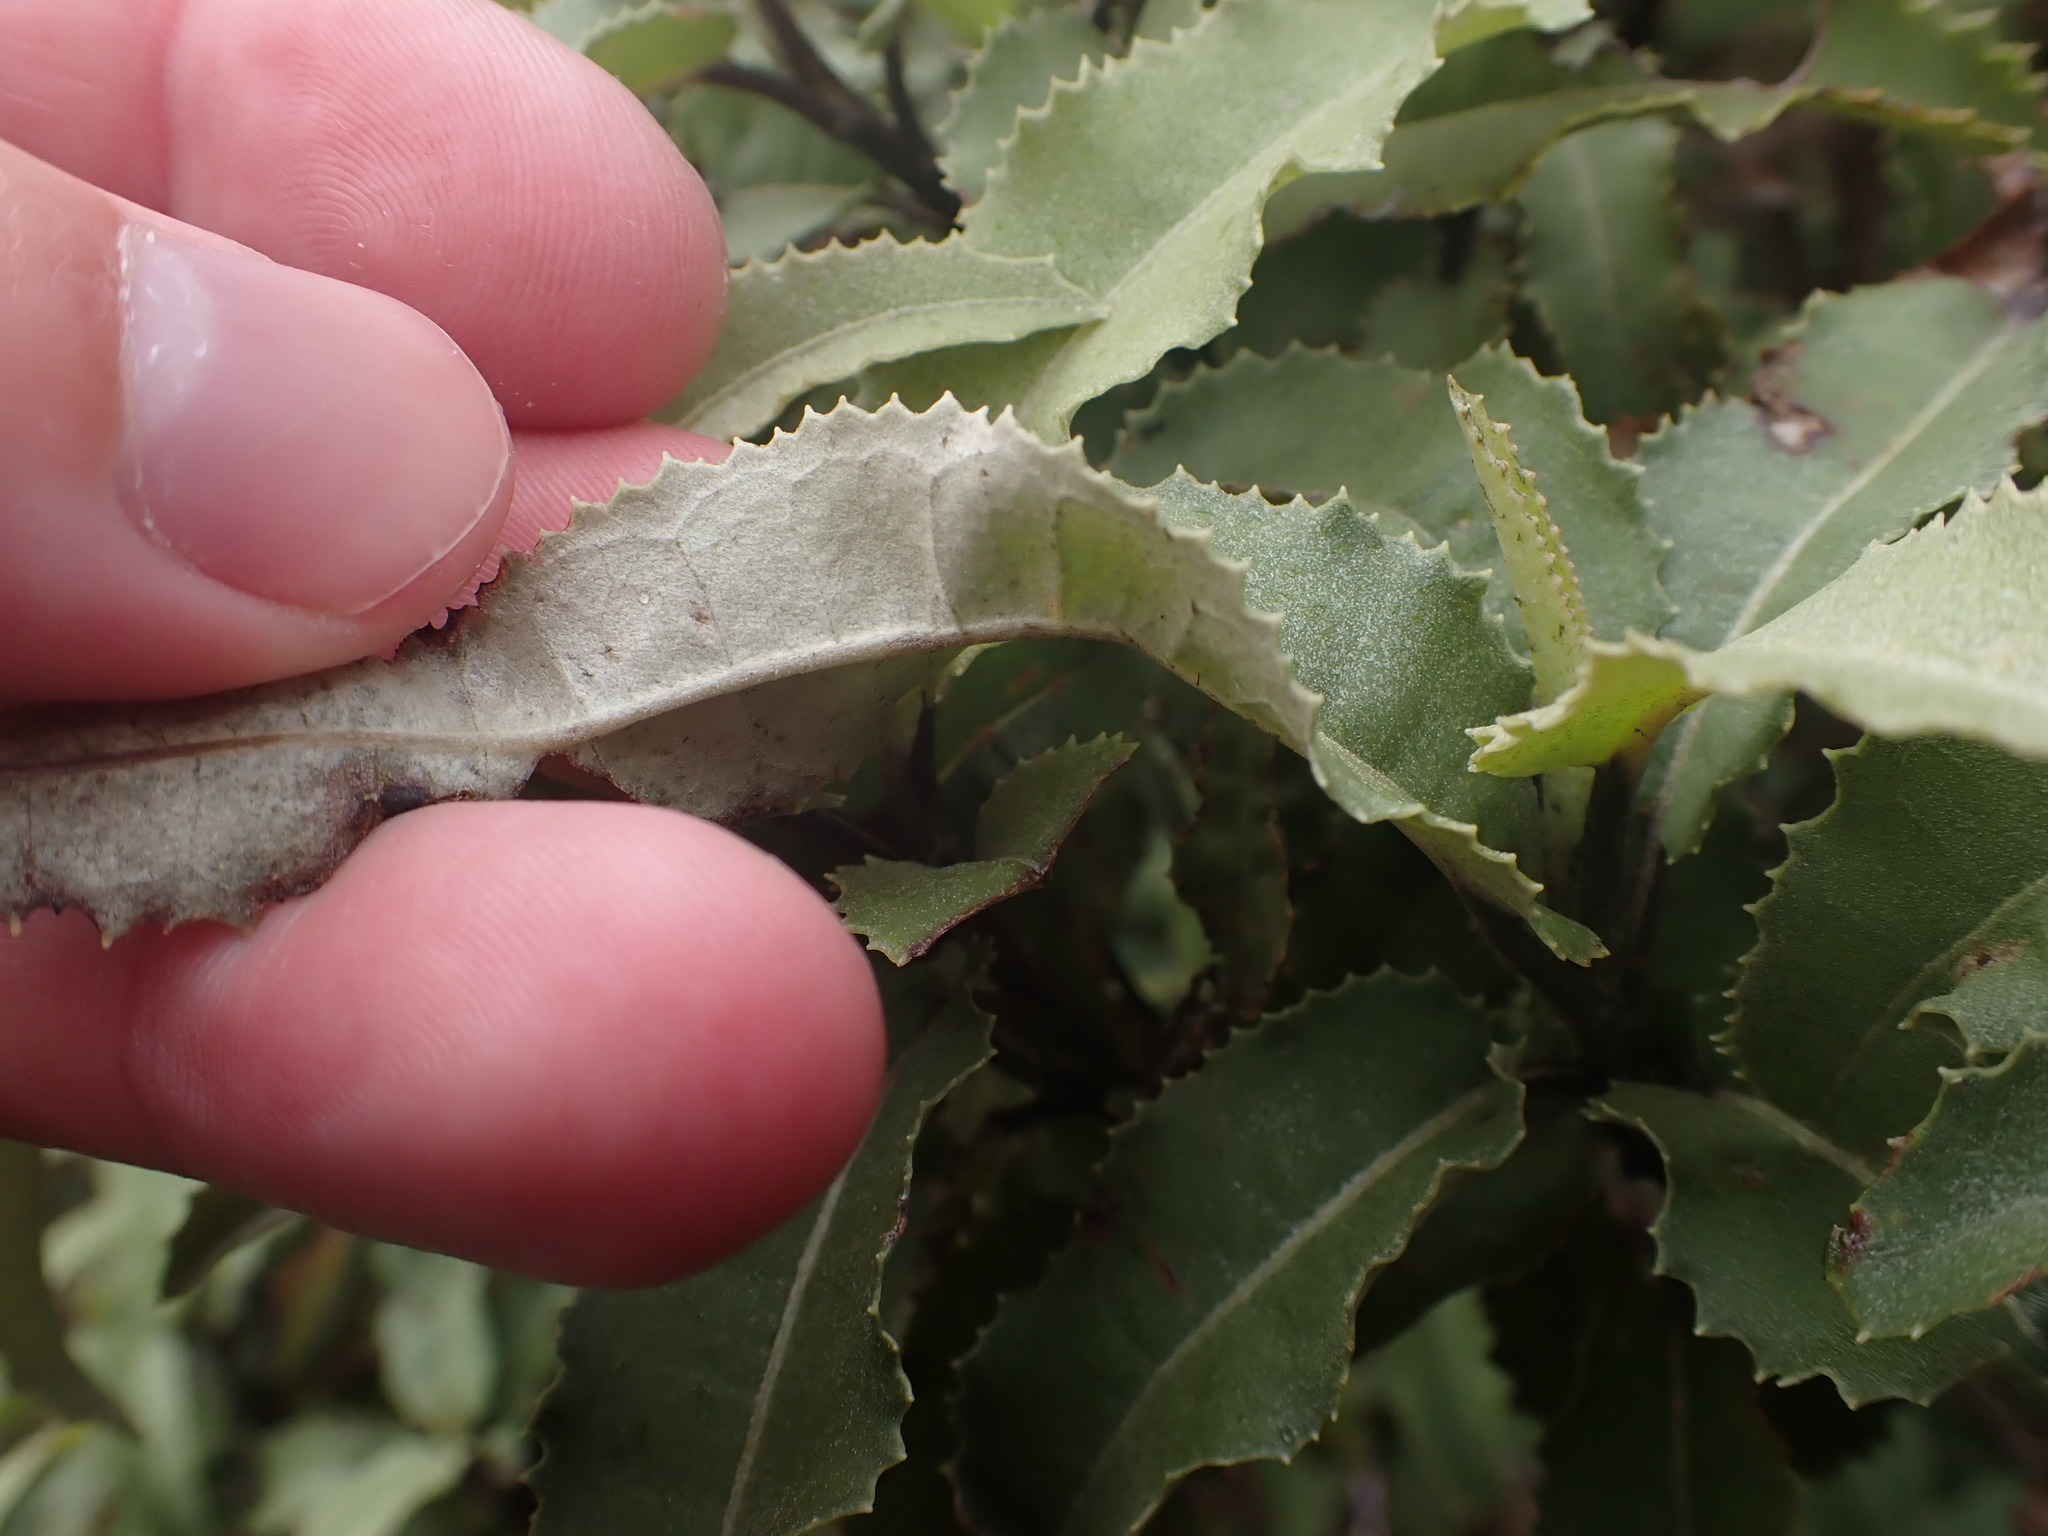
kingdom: Plantae
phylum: Tracheophyta
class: Magnoliopsida
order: Asterales
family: Asteraceae
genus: Olearia
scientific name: Olearia ilicifolia
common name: Maori-holly
